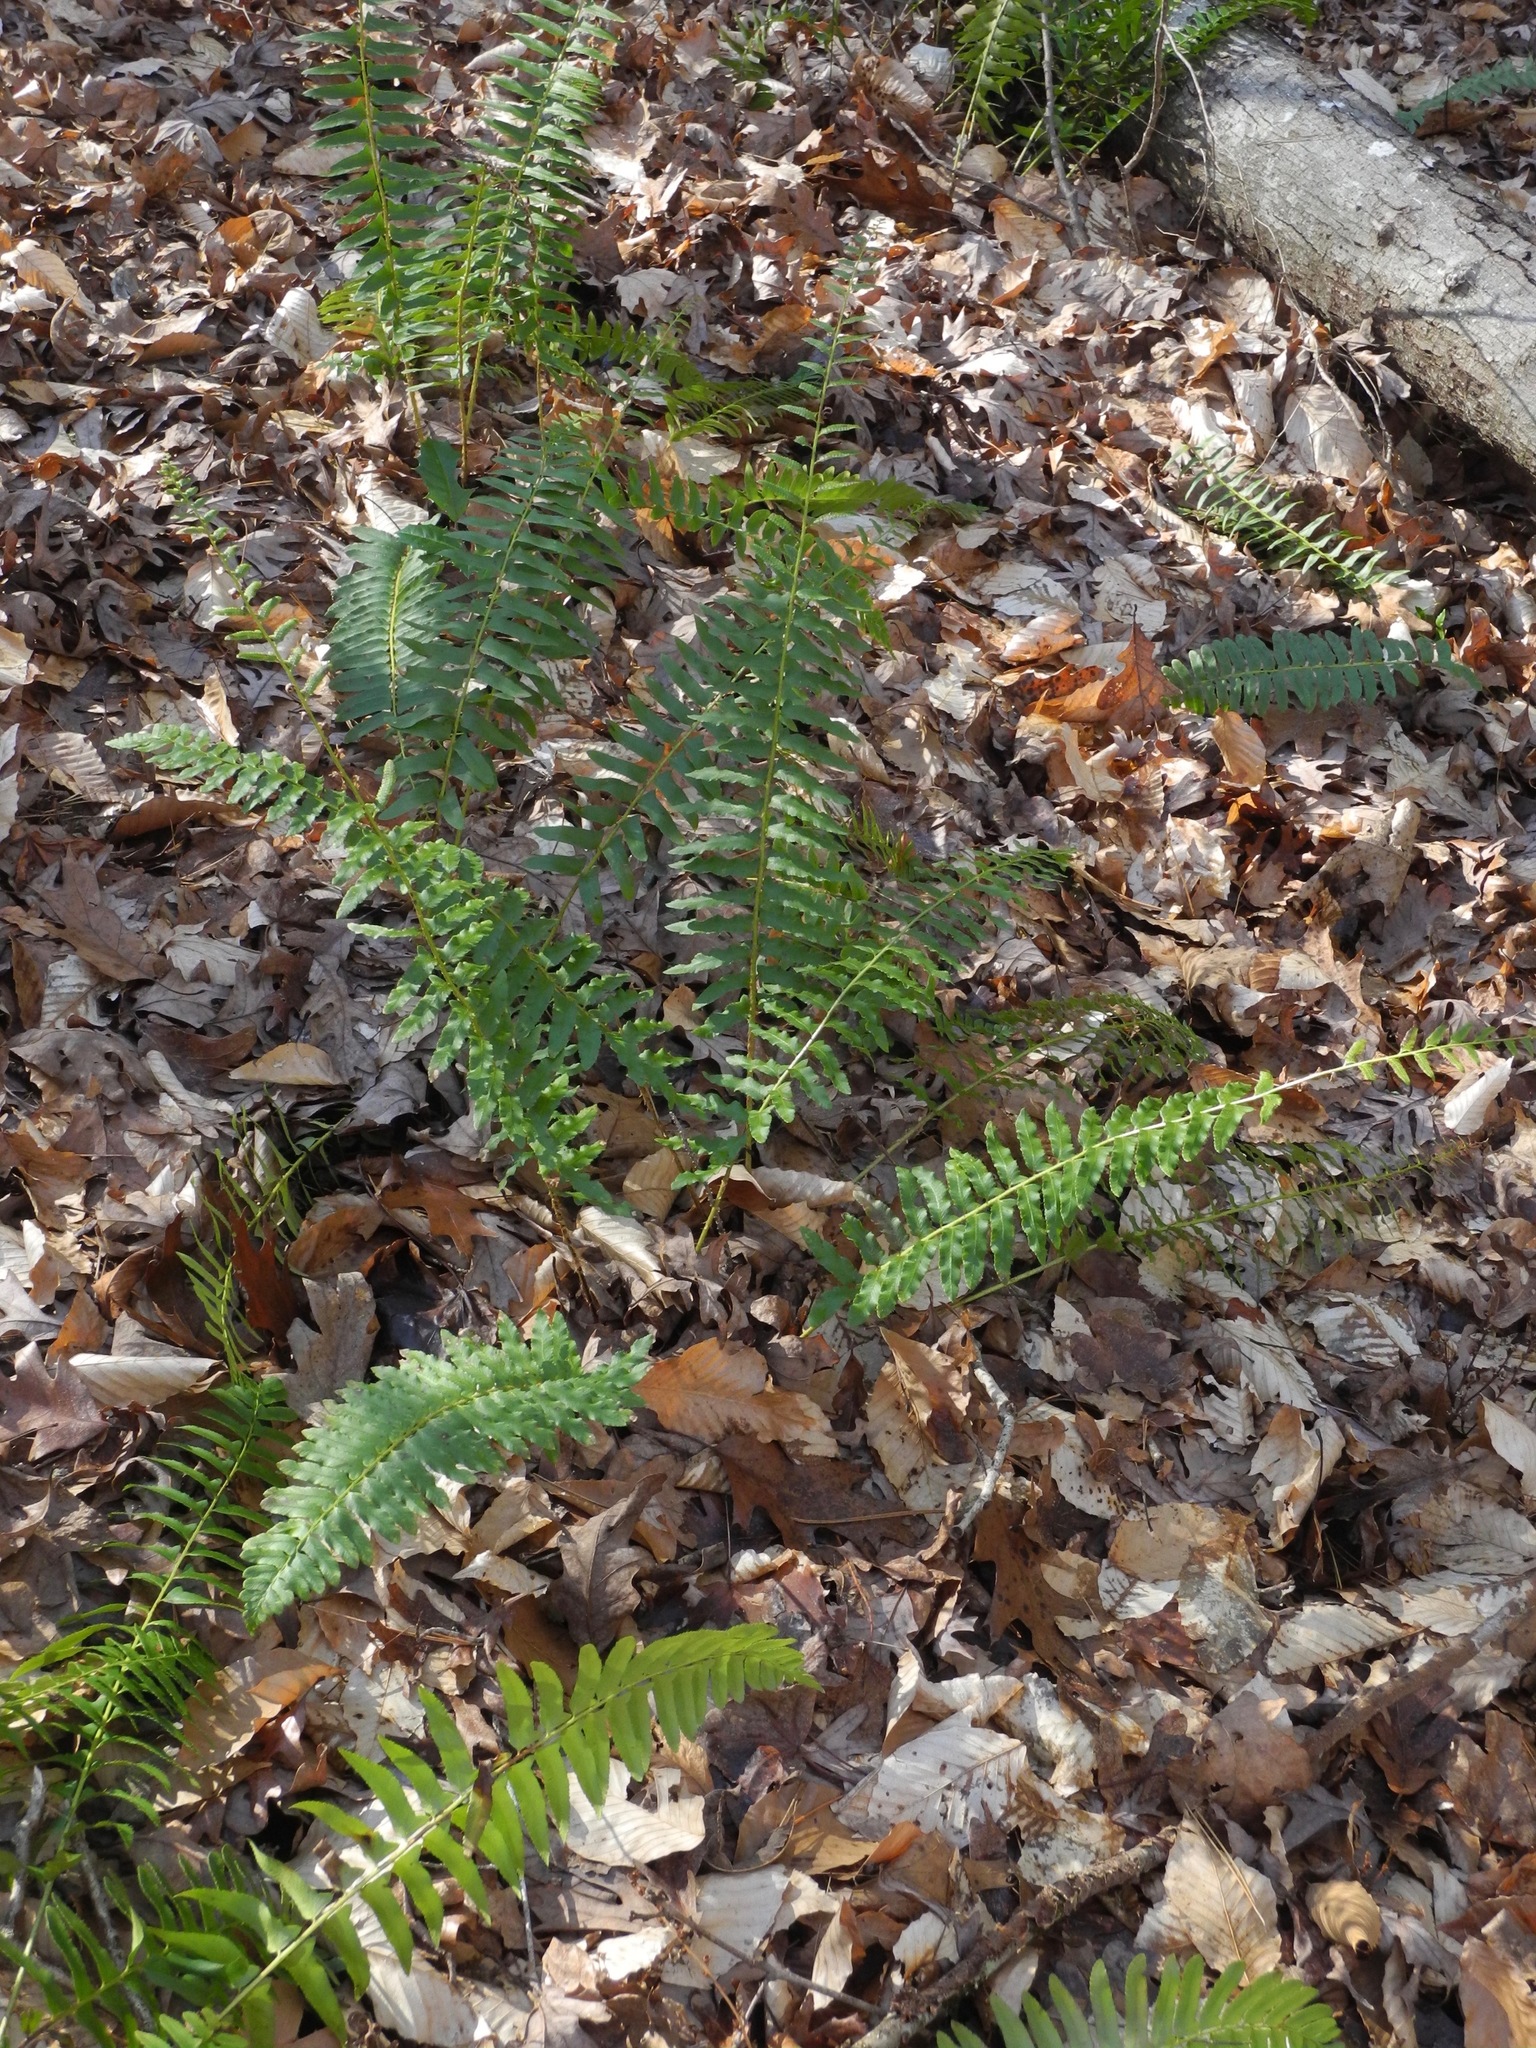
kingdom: Plantae
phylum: Tracheophyta
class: Polypodiopsida
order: Polypodiales
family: Dryopteridaceae
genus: Polystichum
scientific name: Polystichum acrostichoides
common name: Christmas fern
